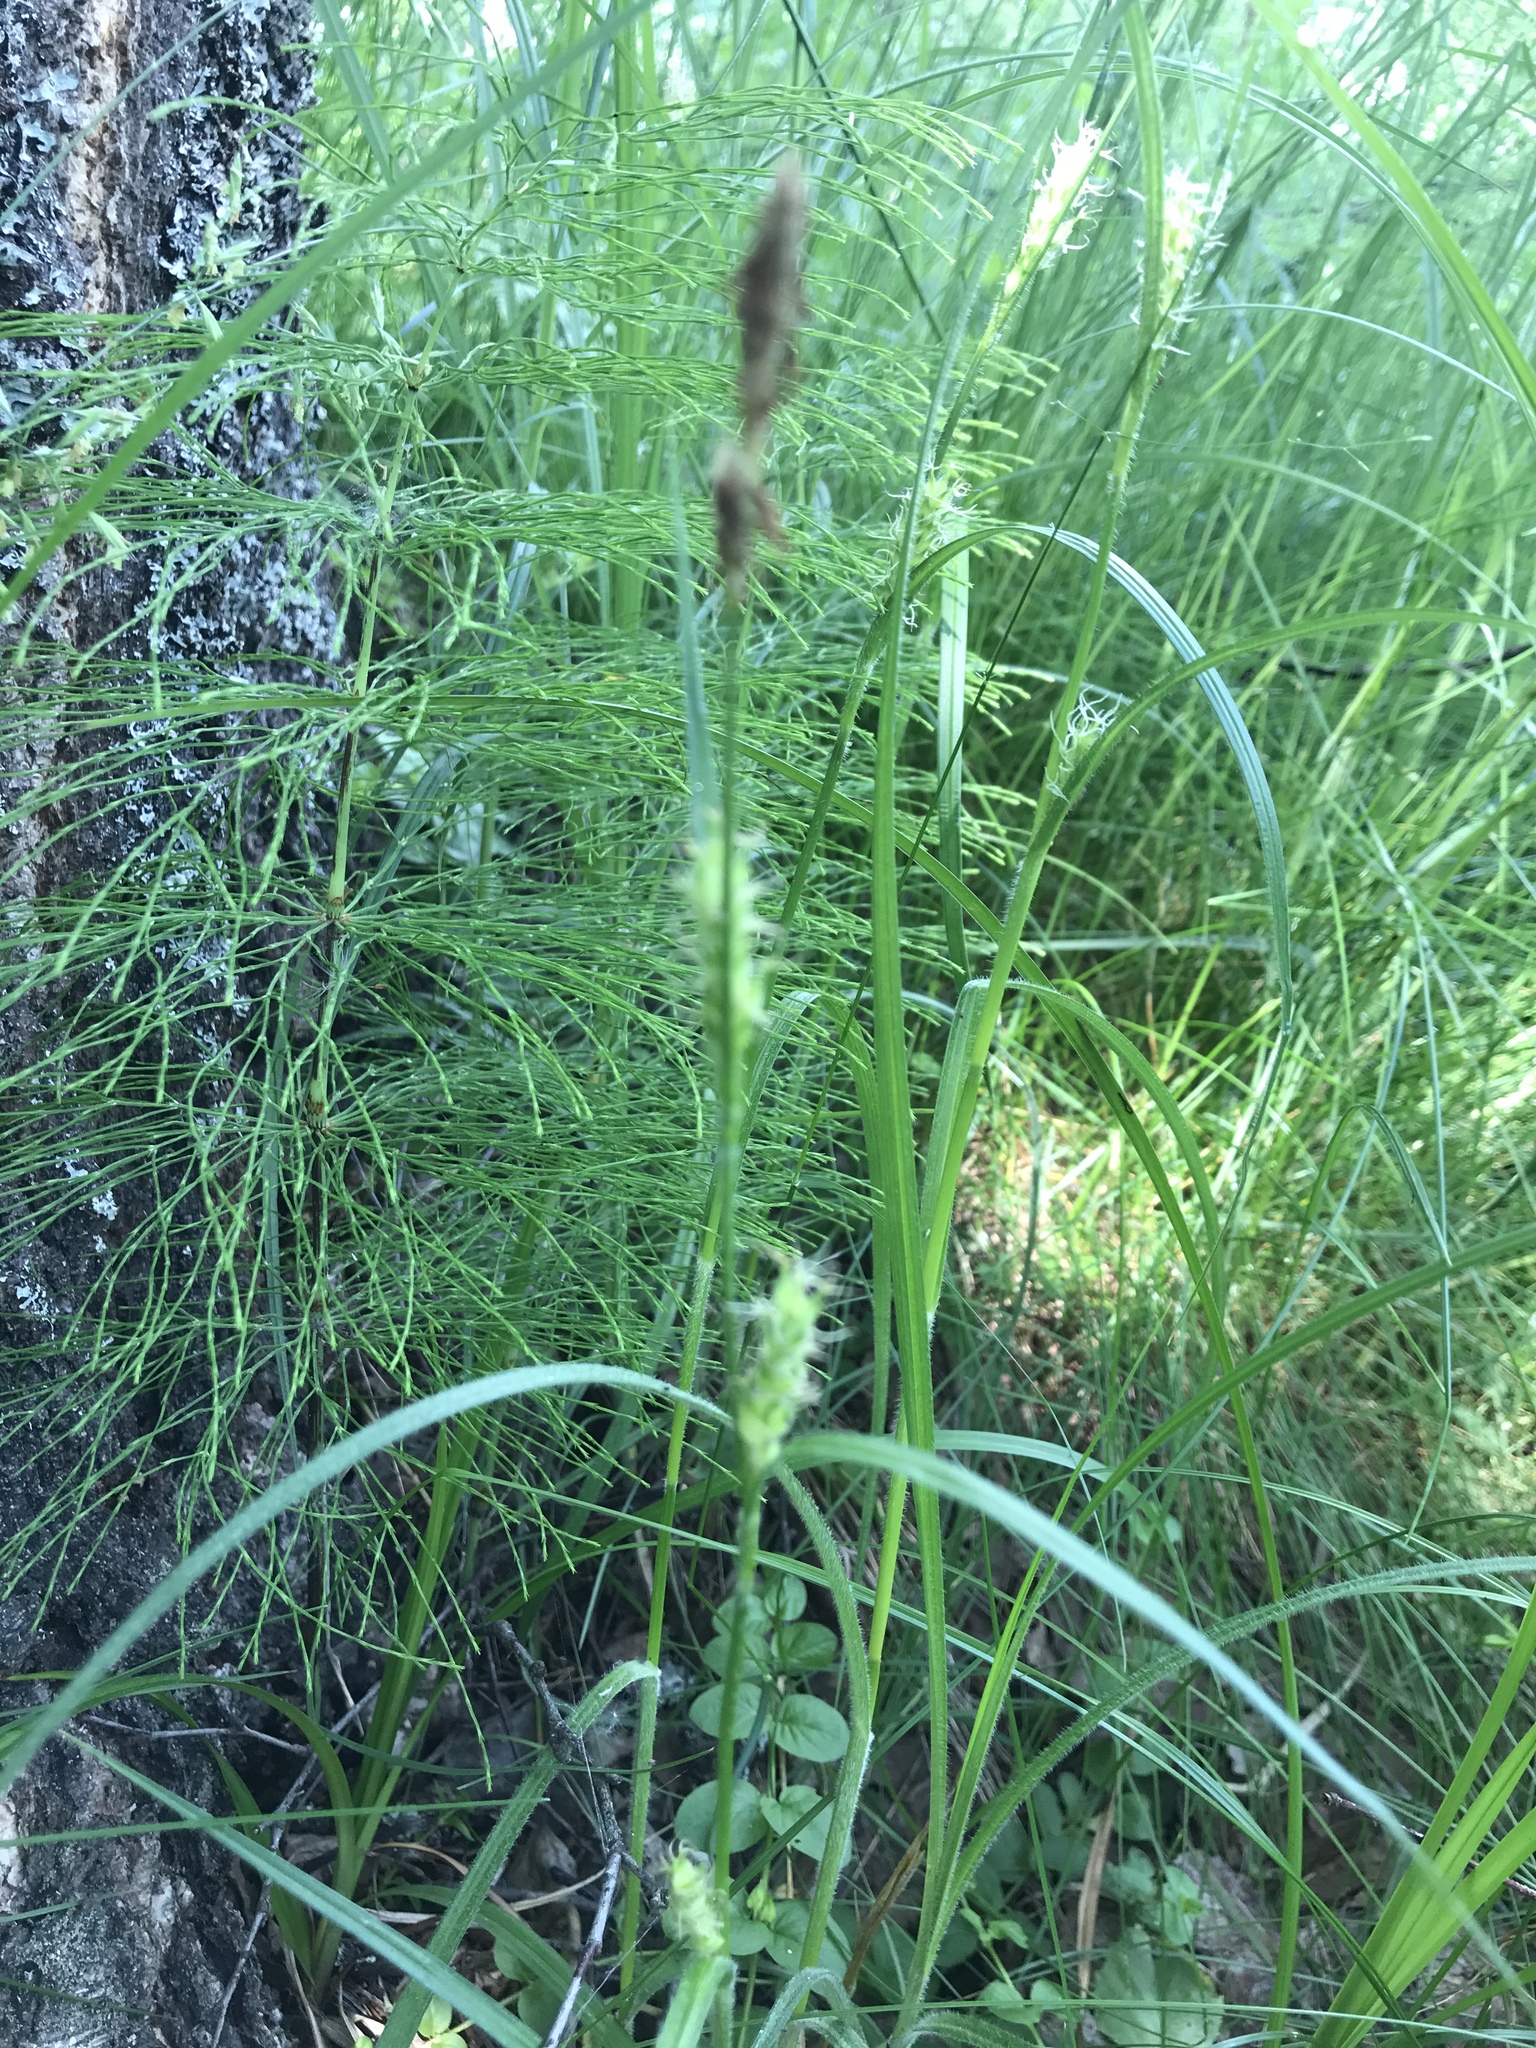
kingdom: Plantae
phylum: Tracheophyta
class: Liliopsida
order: Poales
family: Cyperaceae
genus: Carex
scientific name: Carex hirta
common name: Hairy sedge
